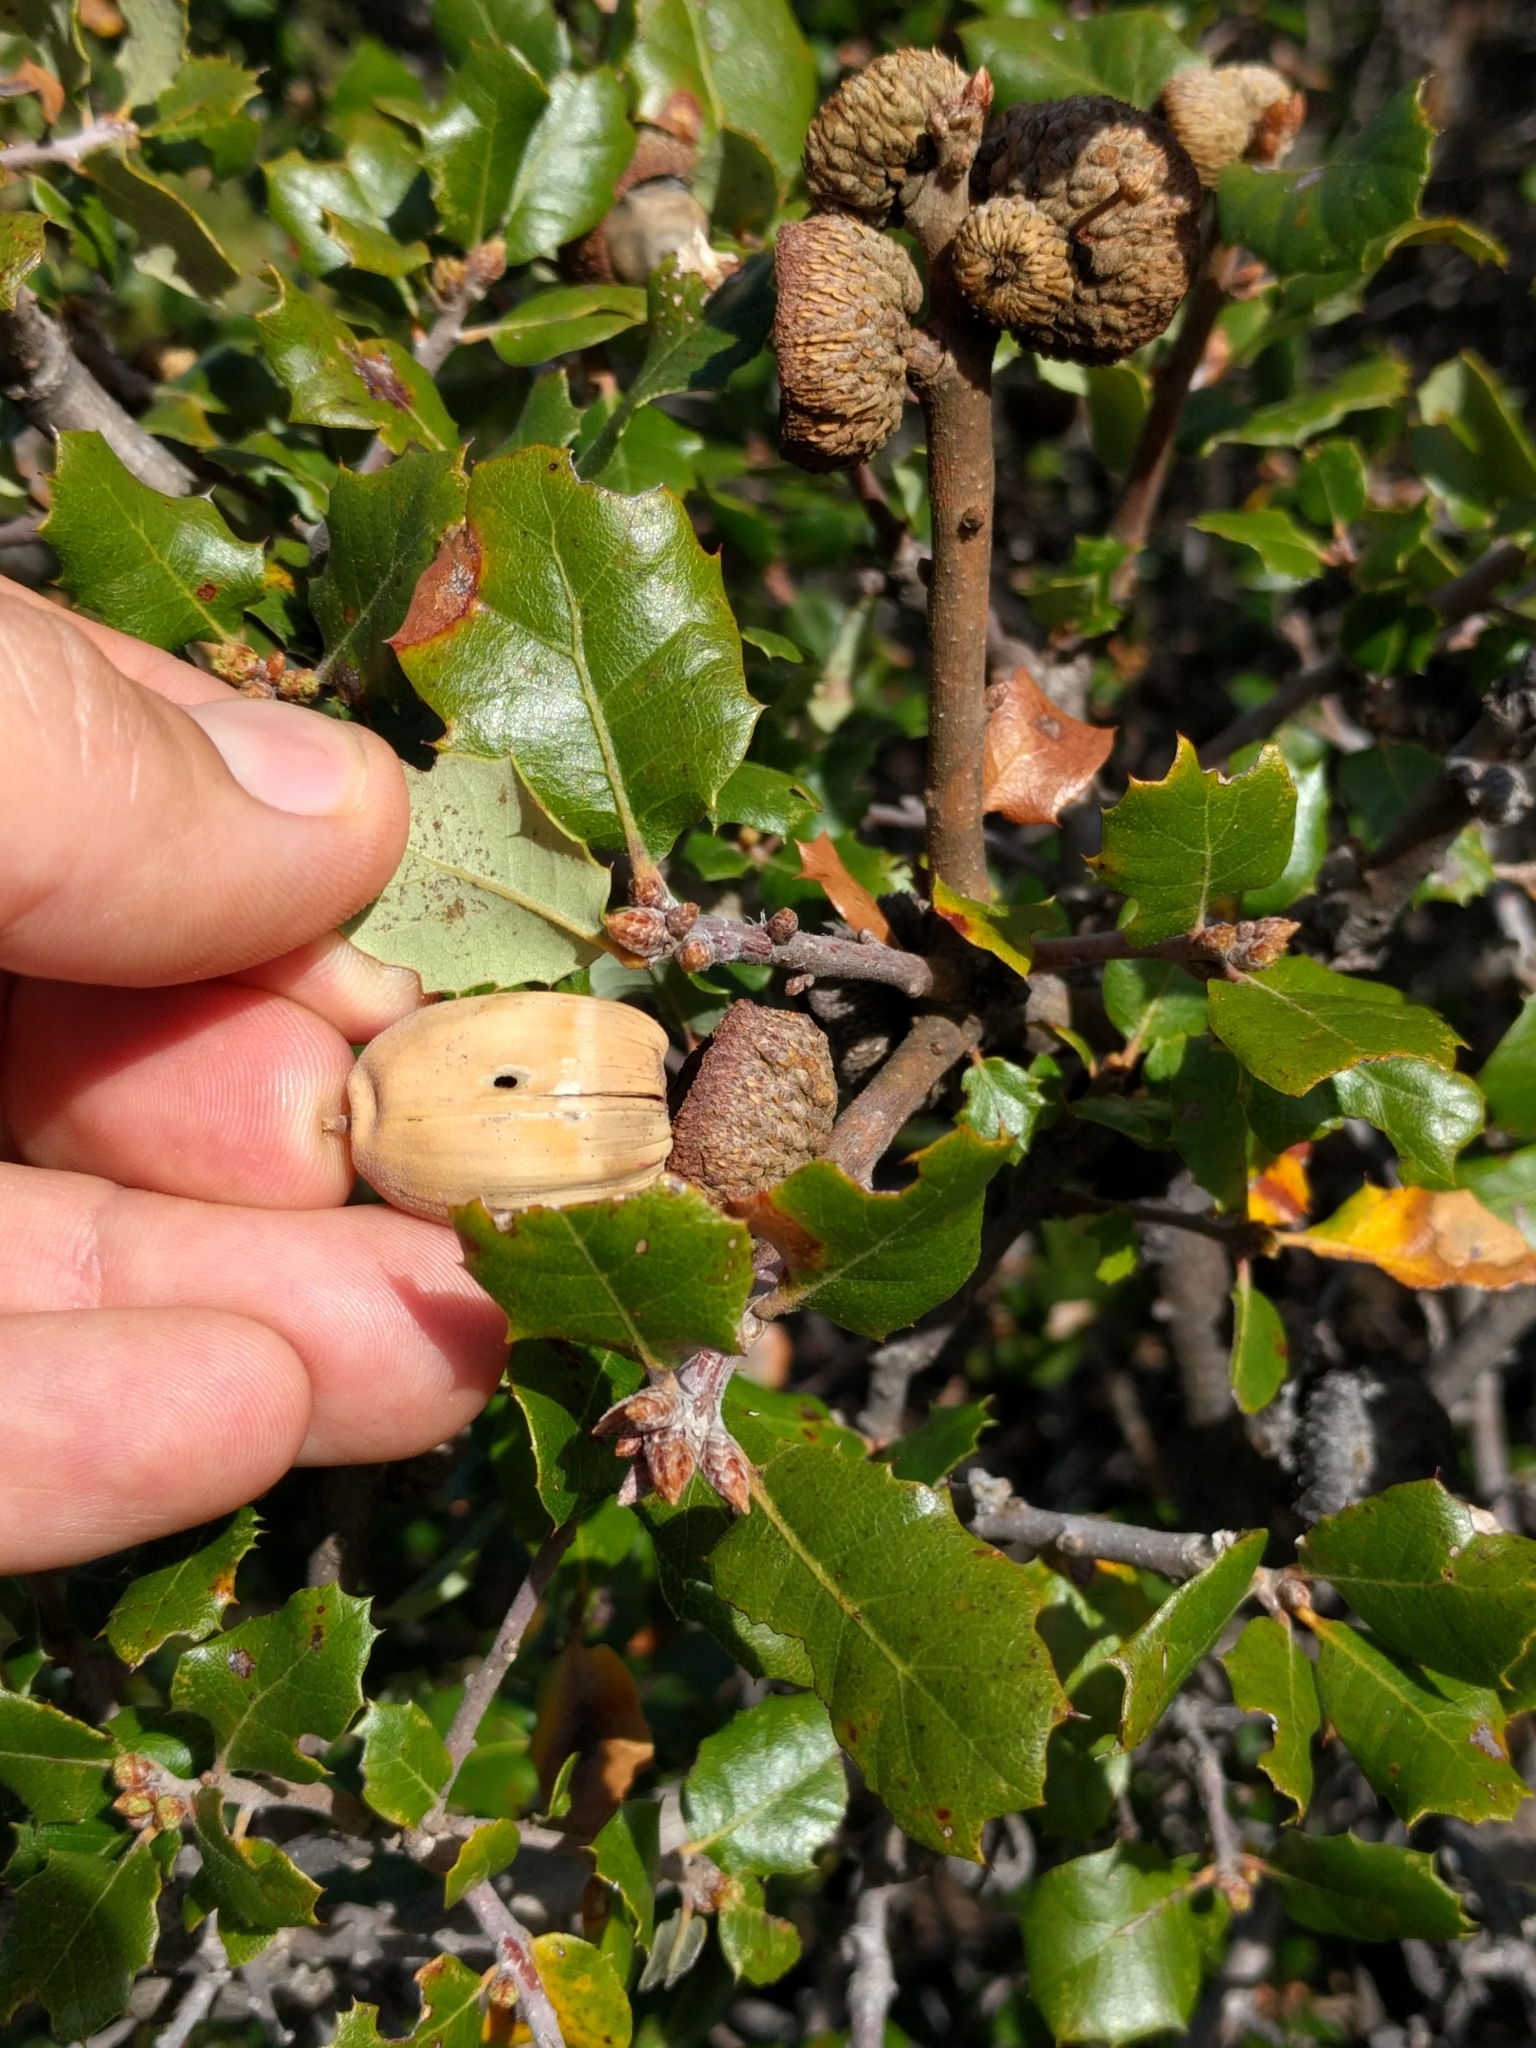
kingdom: Plantae
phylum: Tracheophyta
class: Magnoliopsida
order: Fagales
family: Fagaceae
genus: Quercus
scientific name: Quercus berberidifolia
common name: California scrub oak
